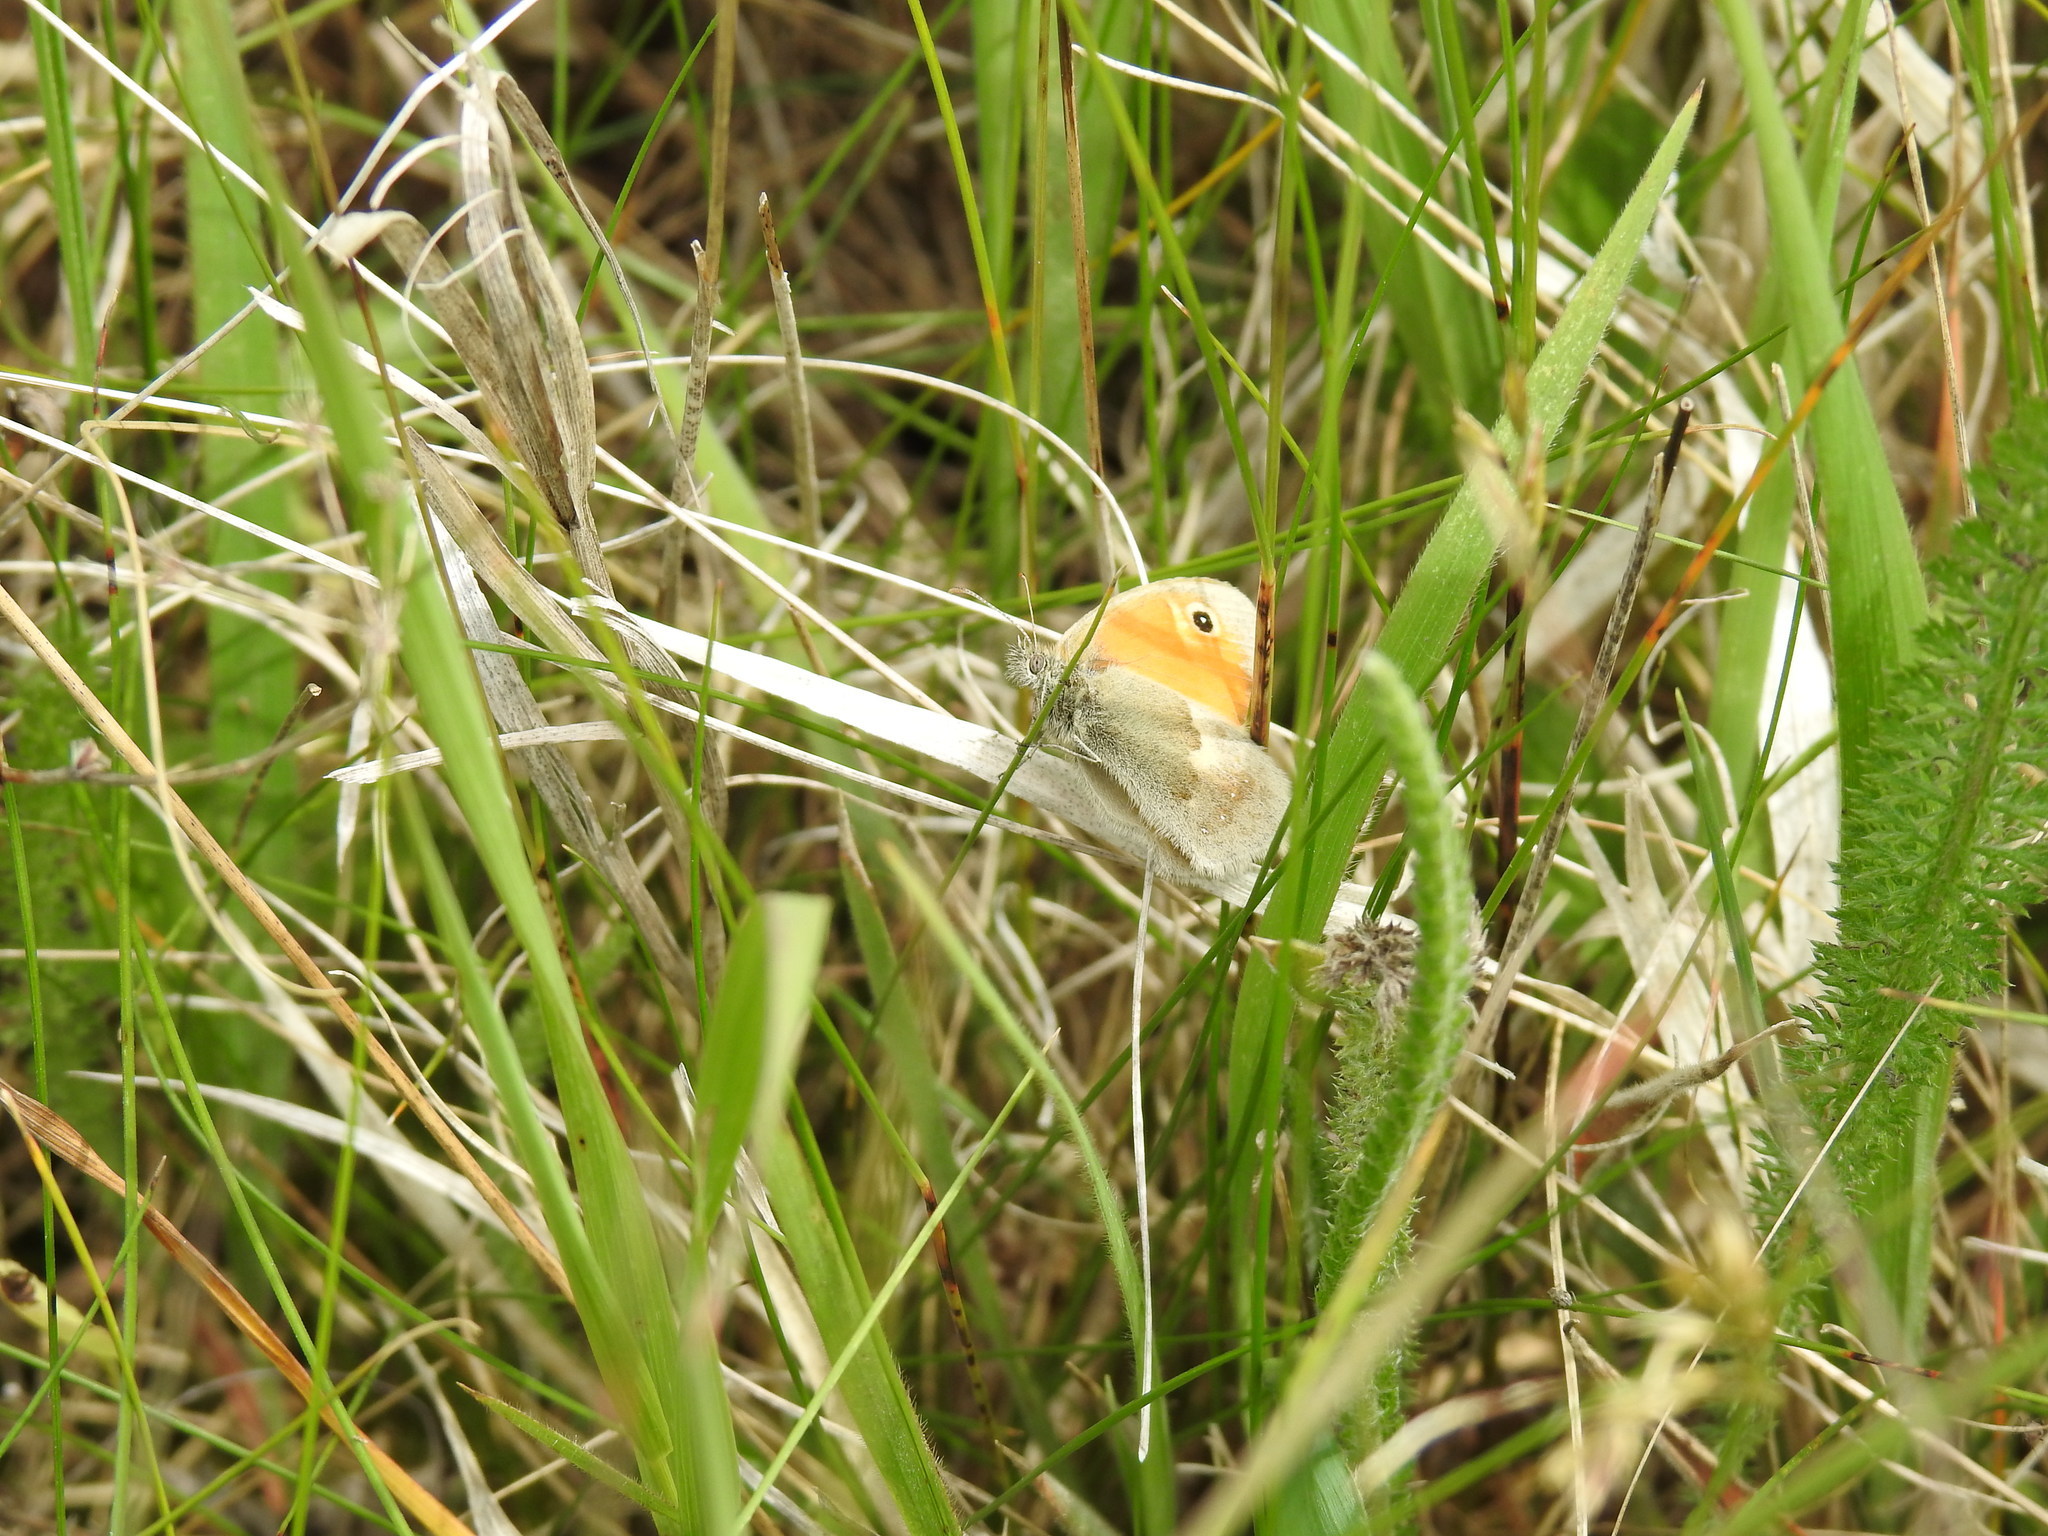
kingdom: Animalia
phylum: Arthropoda
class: Insecta
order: Lepidoptera
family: Nymphalidae
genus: Coenonympha
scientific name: Coenonympha pamphilus
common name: Small heath
